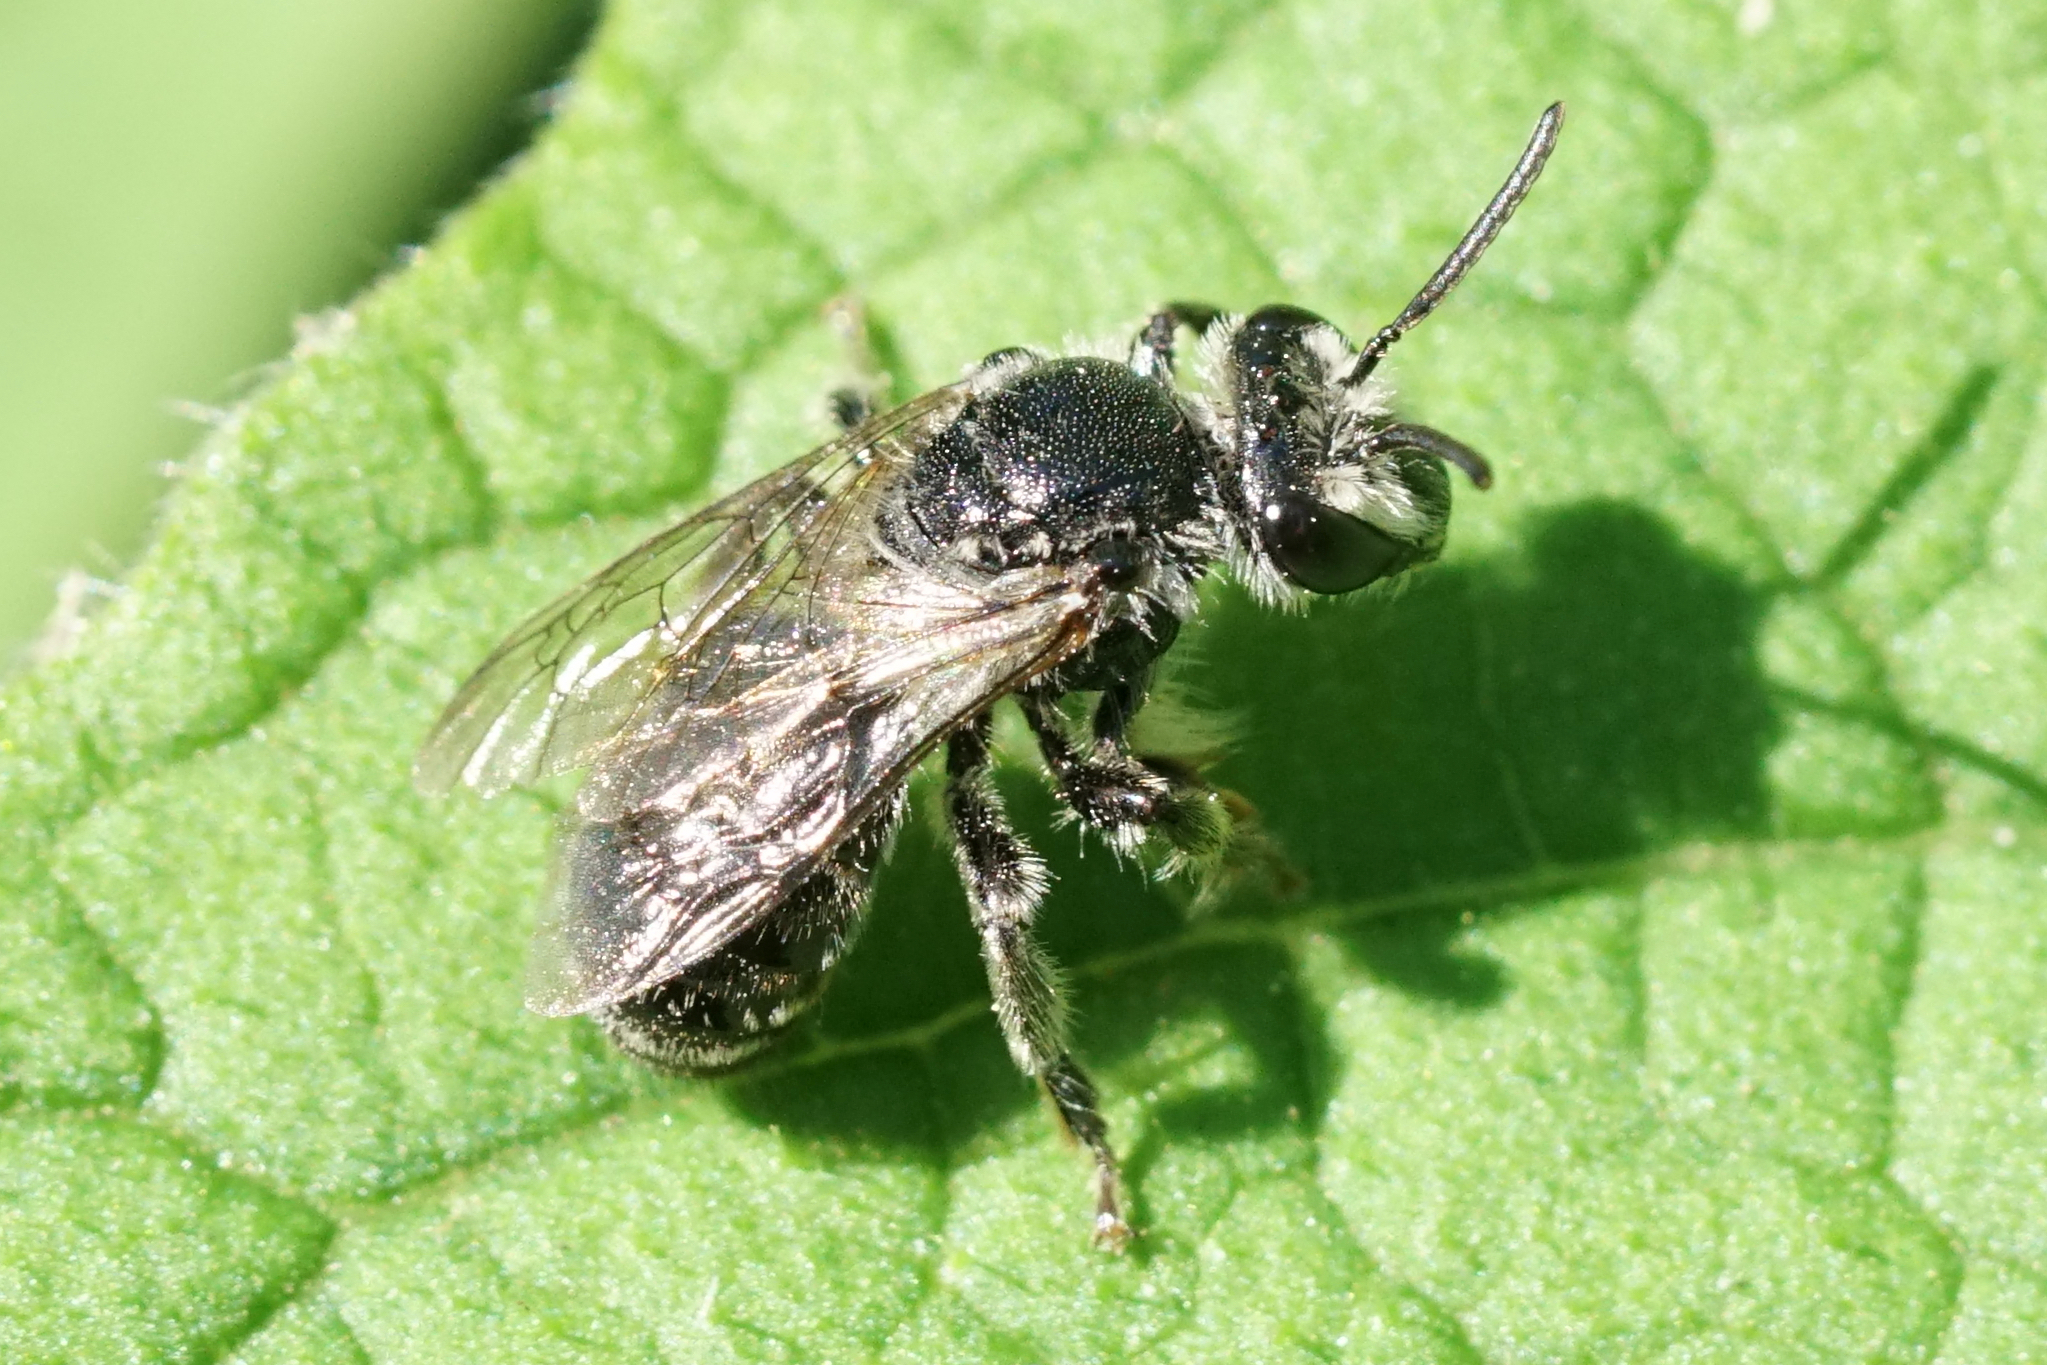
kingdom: Animalia
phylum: Arthropoda
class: Insecta
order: Hymenoptera
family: Colletidae
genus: Colletes
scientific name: Colletes latitarsis
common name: Broad-footed cellophane bee
